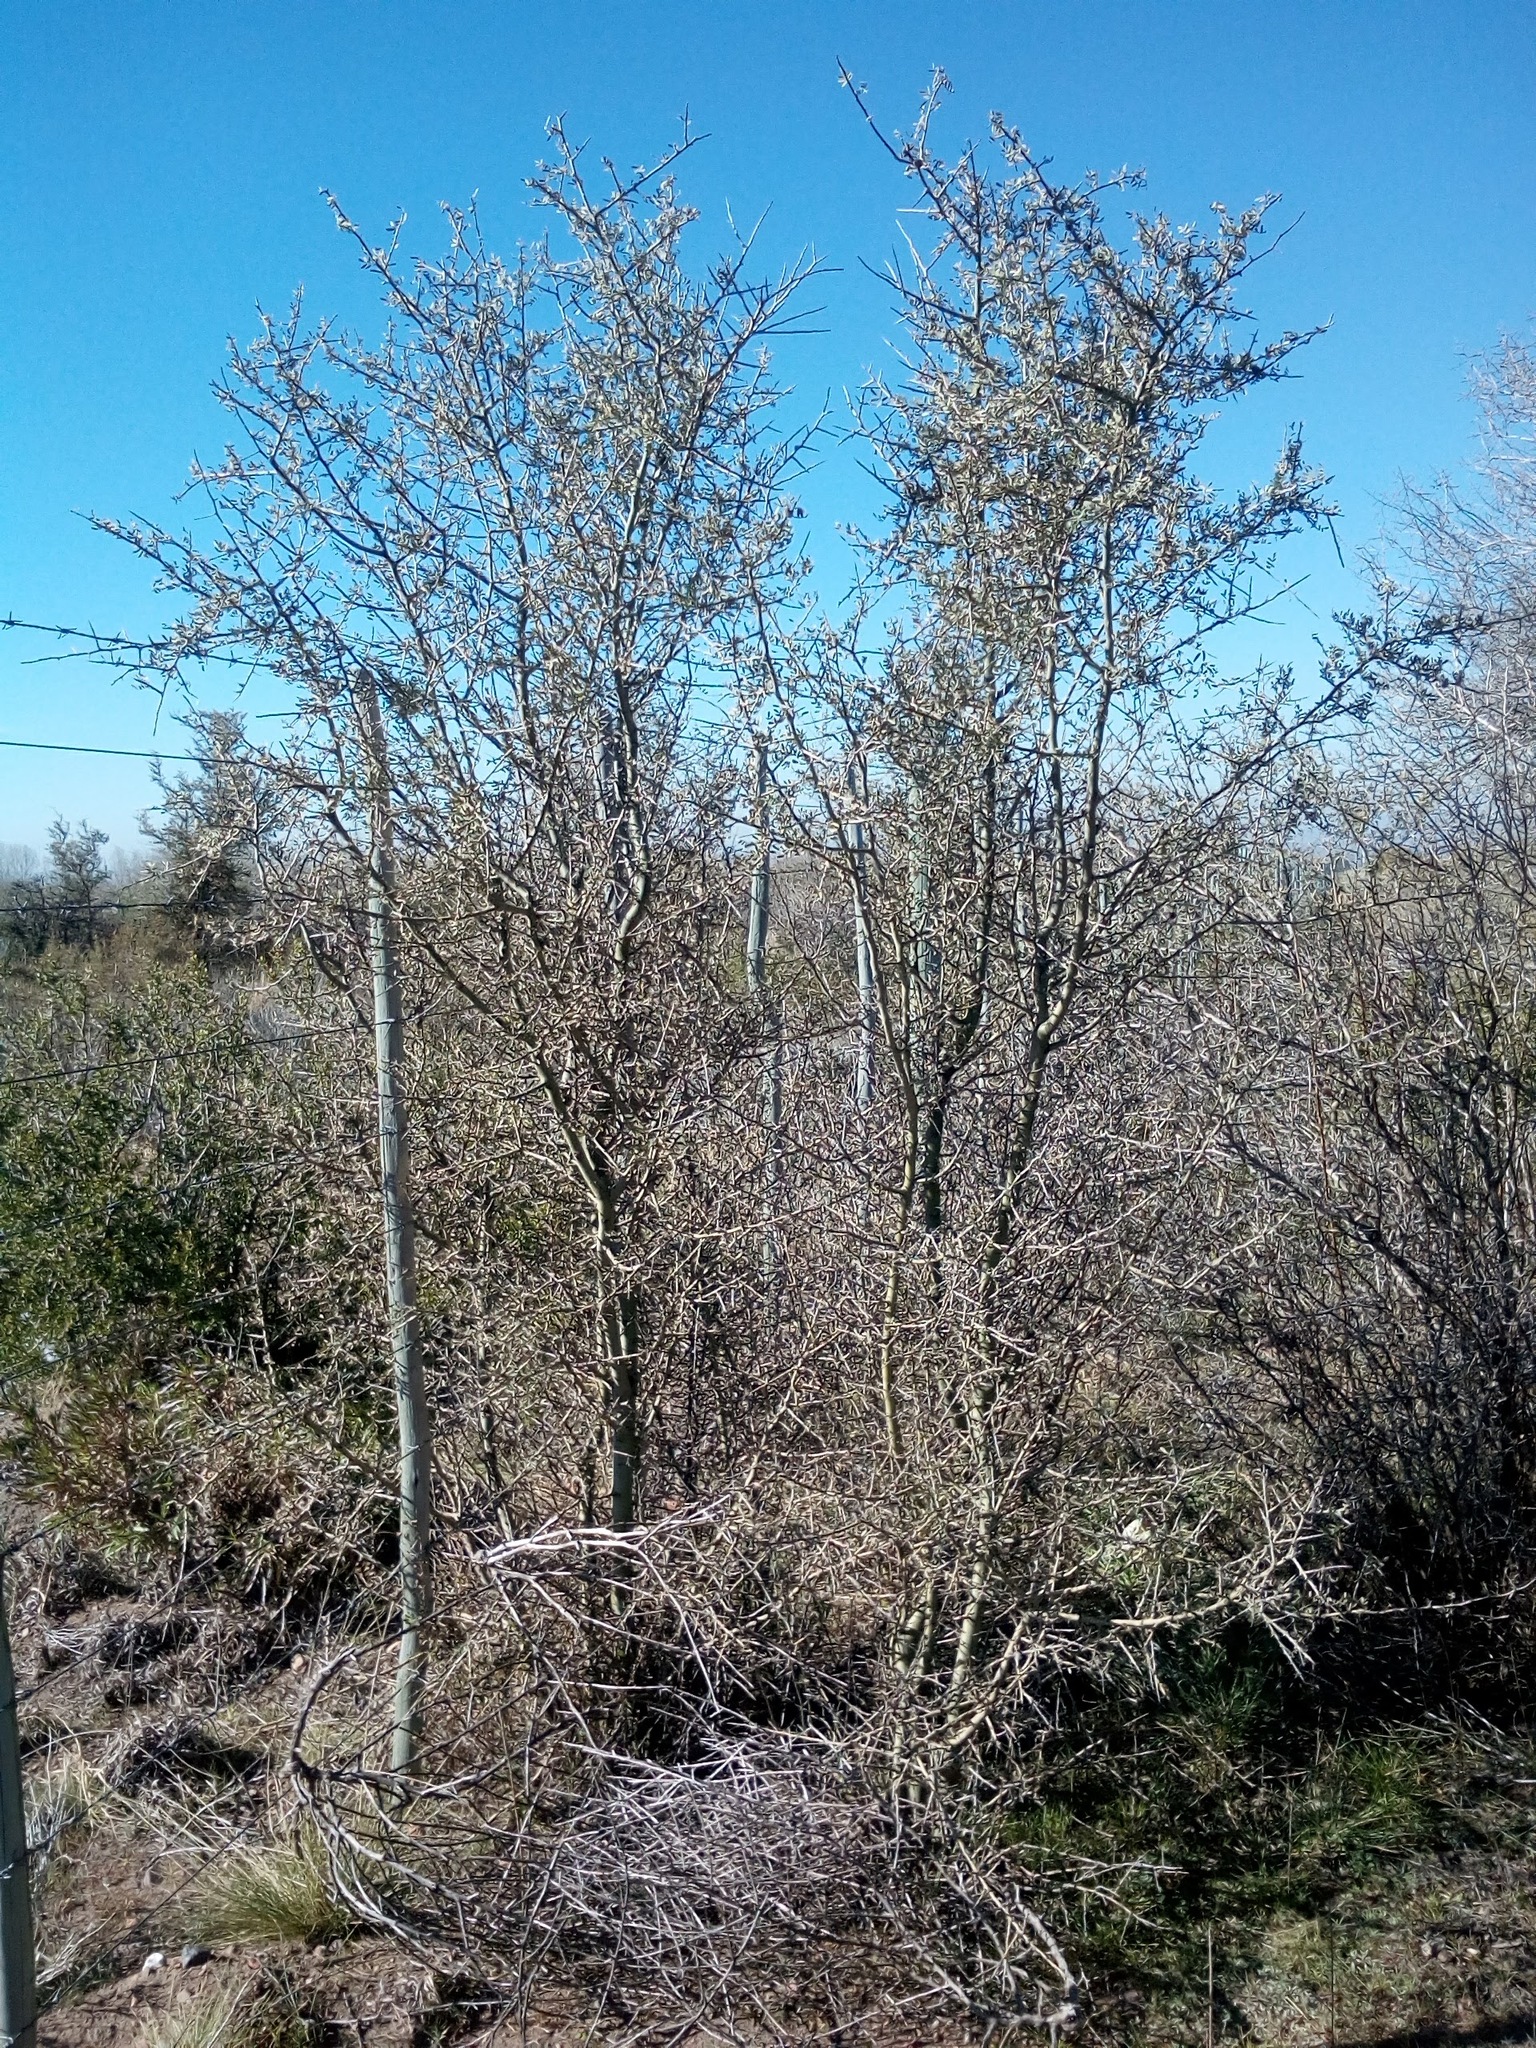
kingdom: Plantae
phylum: Tracheophyta
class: Magnoliopsida
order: Fabales
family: Fabaceae
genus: Geoffroea
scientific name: Geoffroea decorticans
